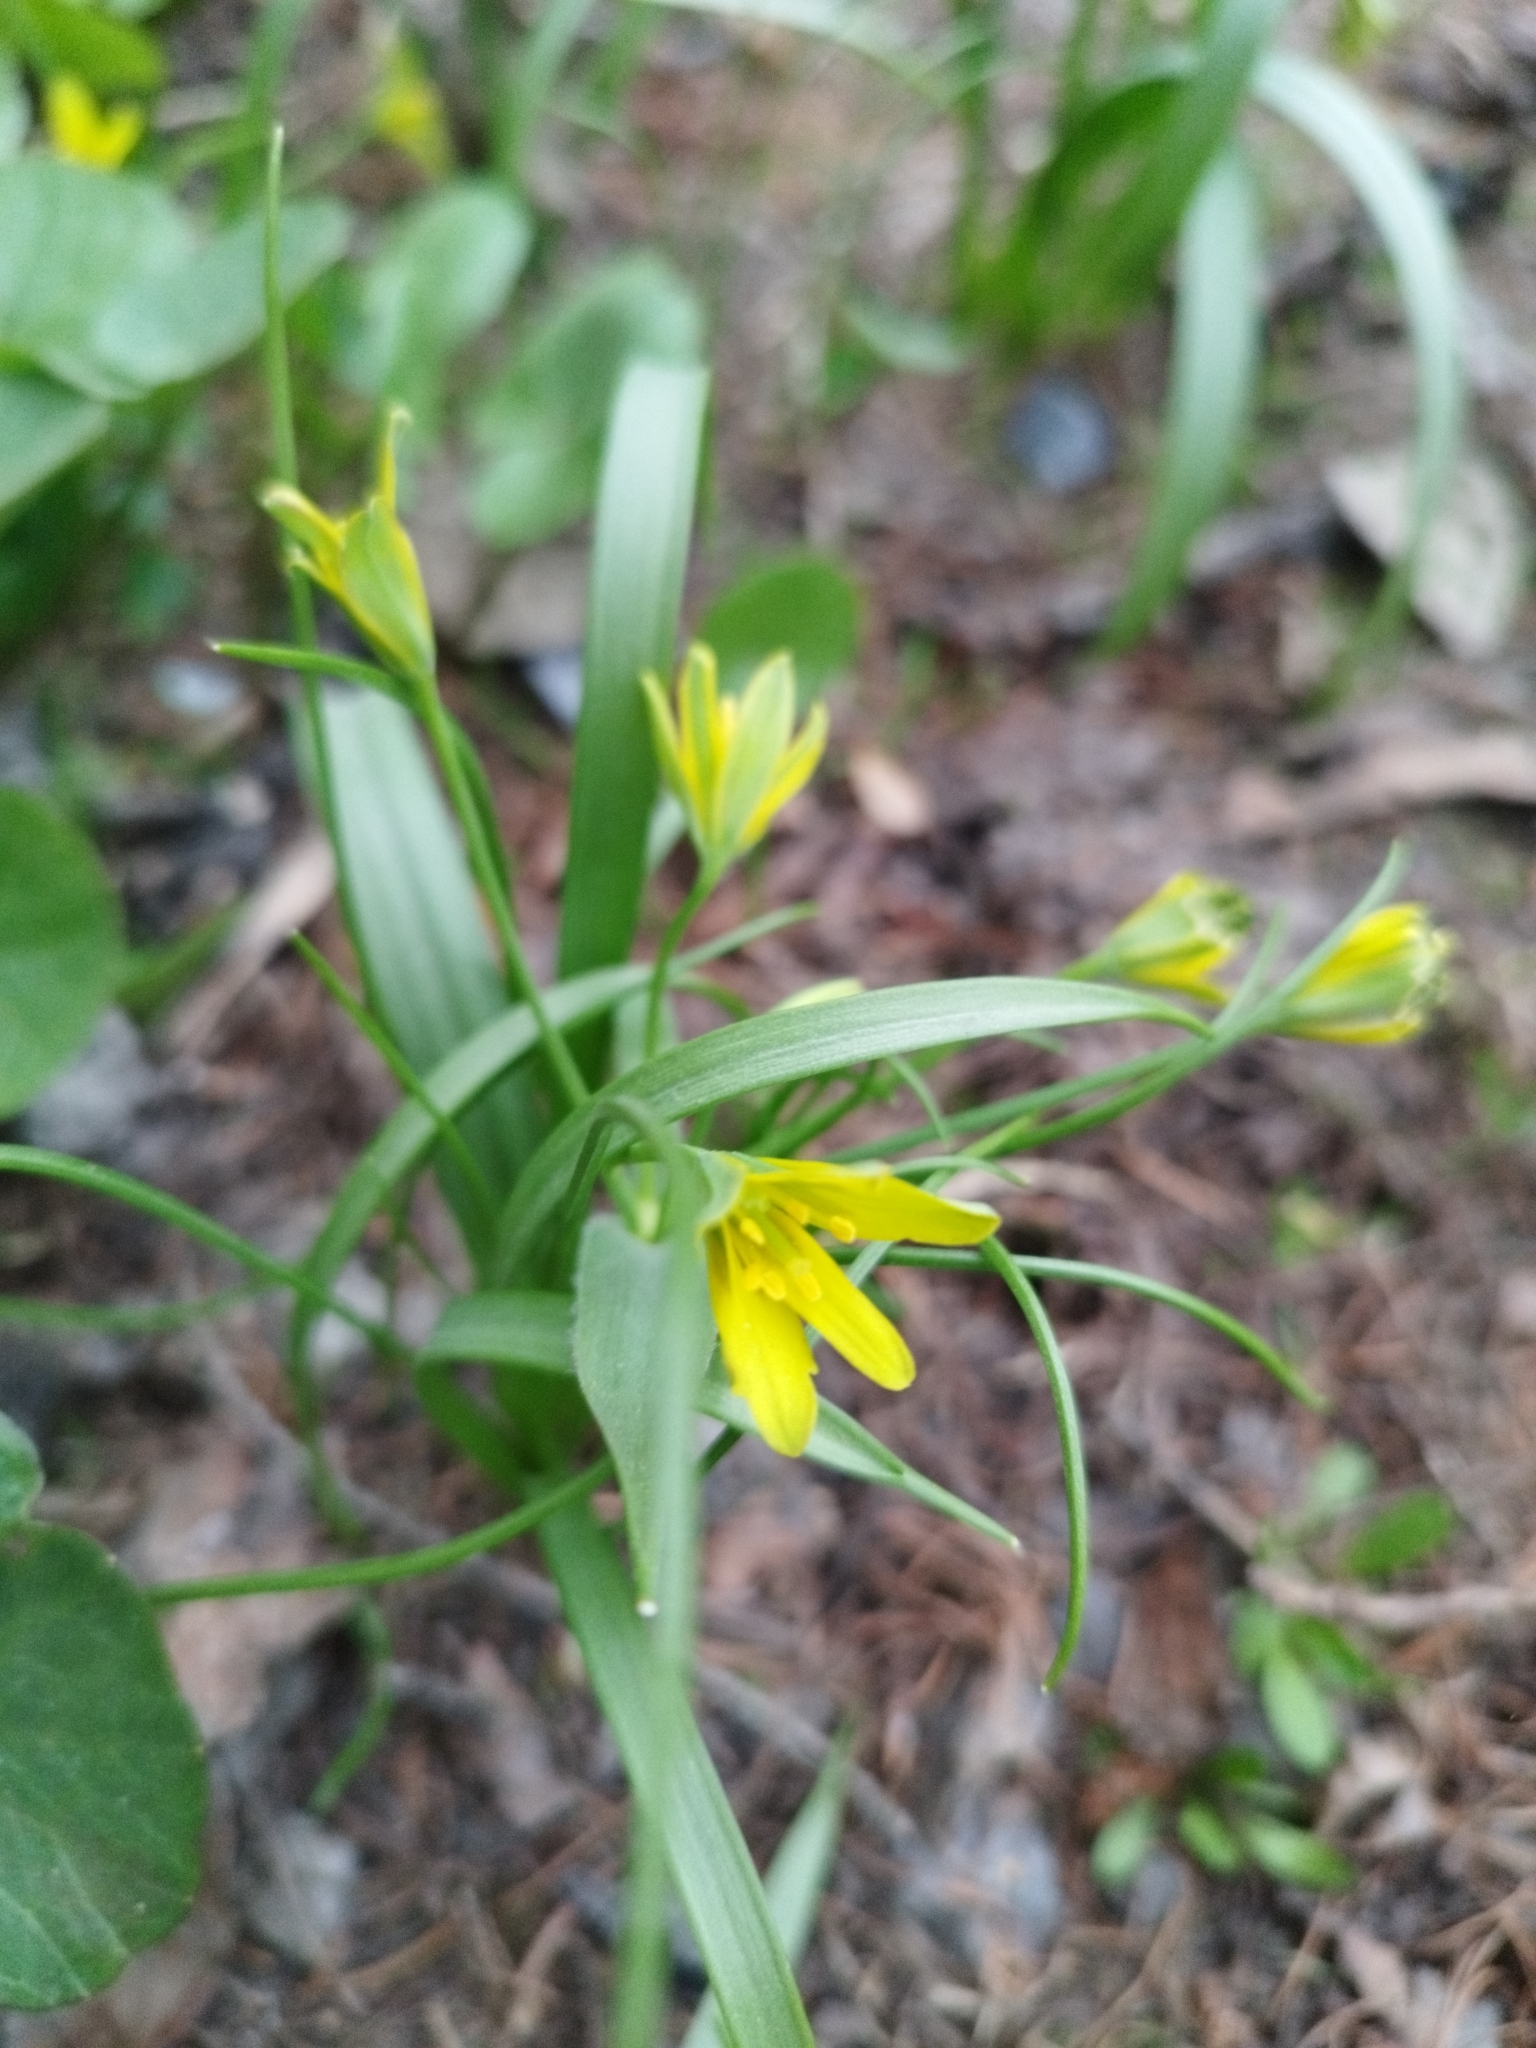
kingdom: Plantae
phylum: Tracheophyta
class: Liliopsida
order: Liliales
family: Liliaceae
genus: Gagea
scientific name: Gagea lutea
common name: Yellow star-of-bethlehem
